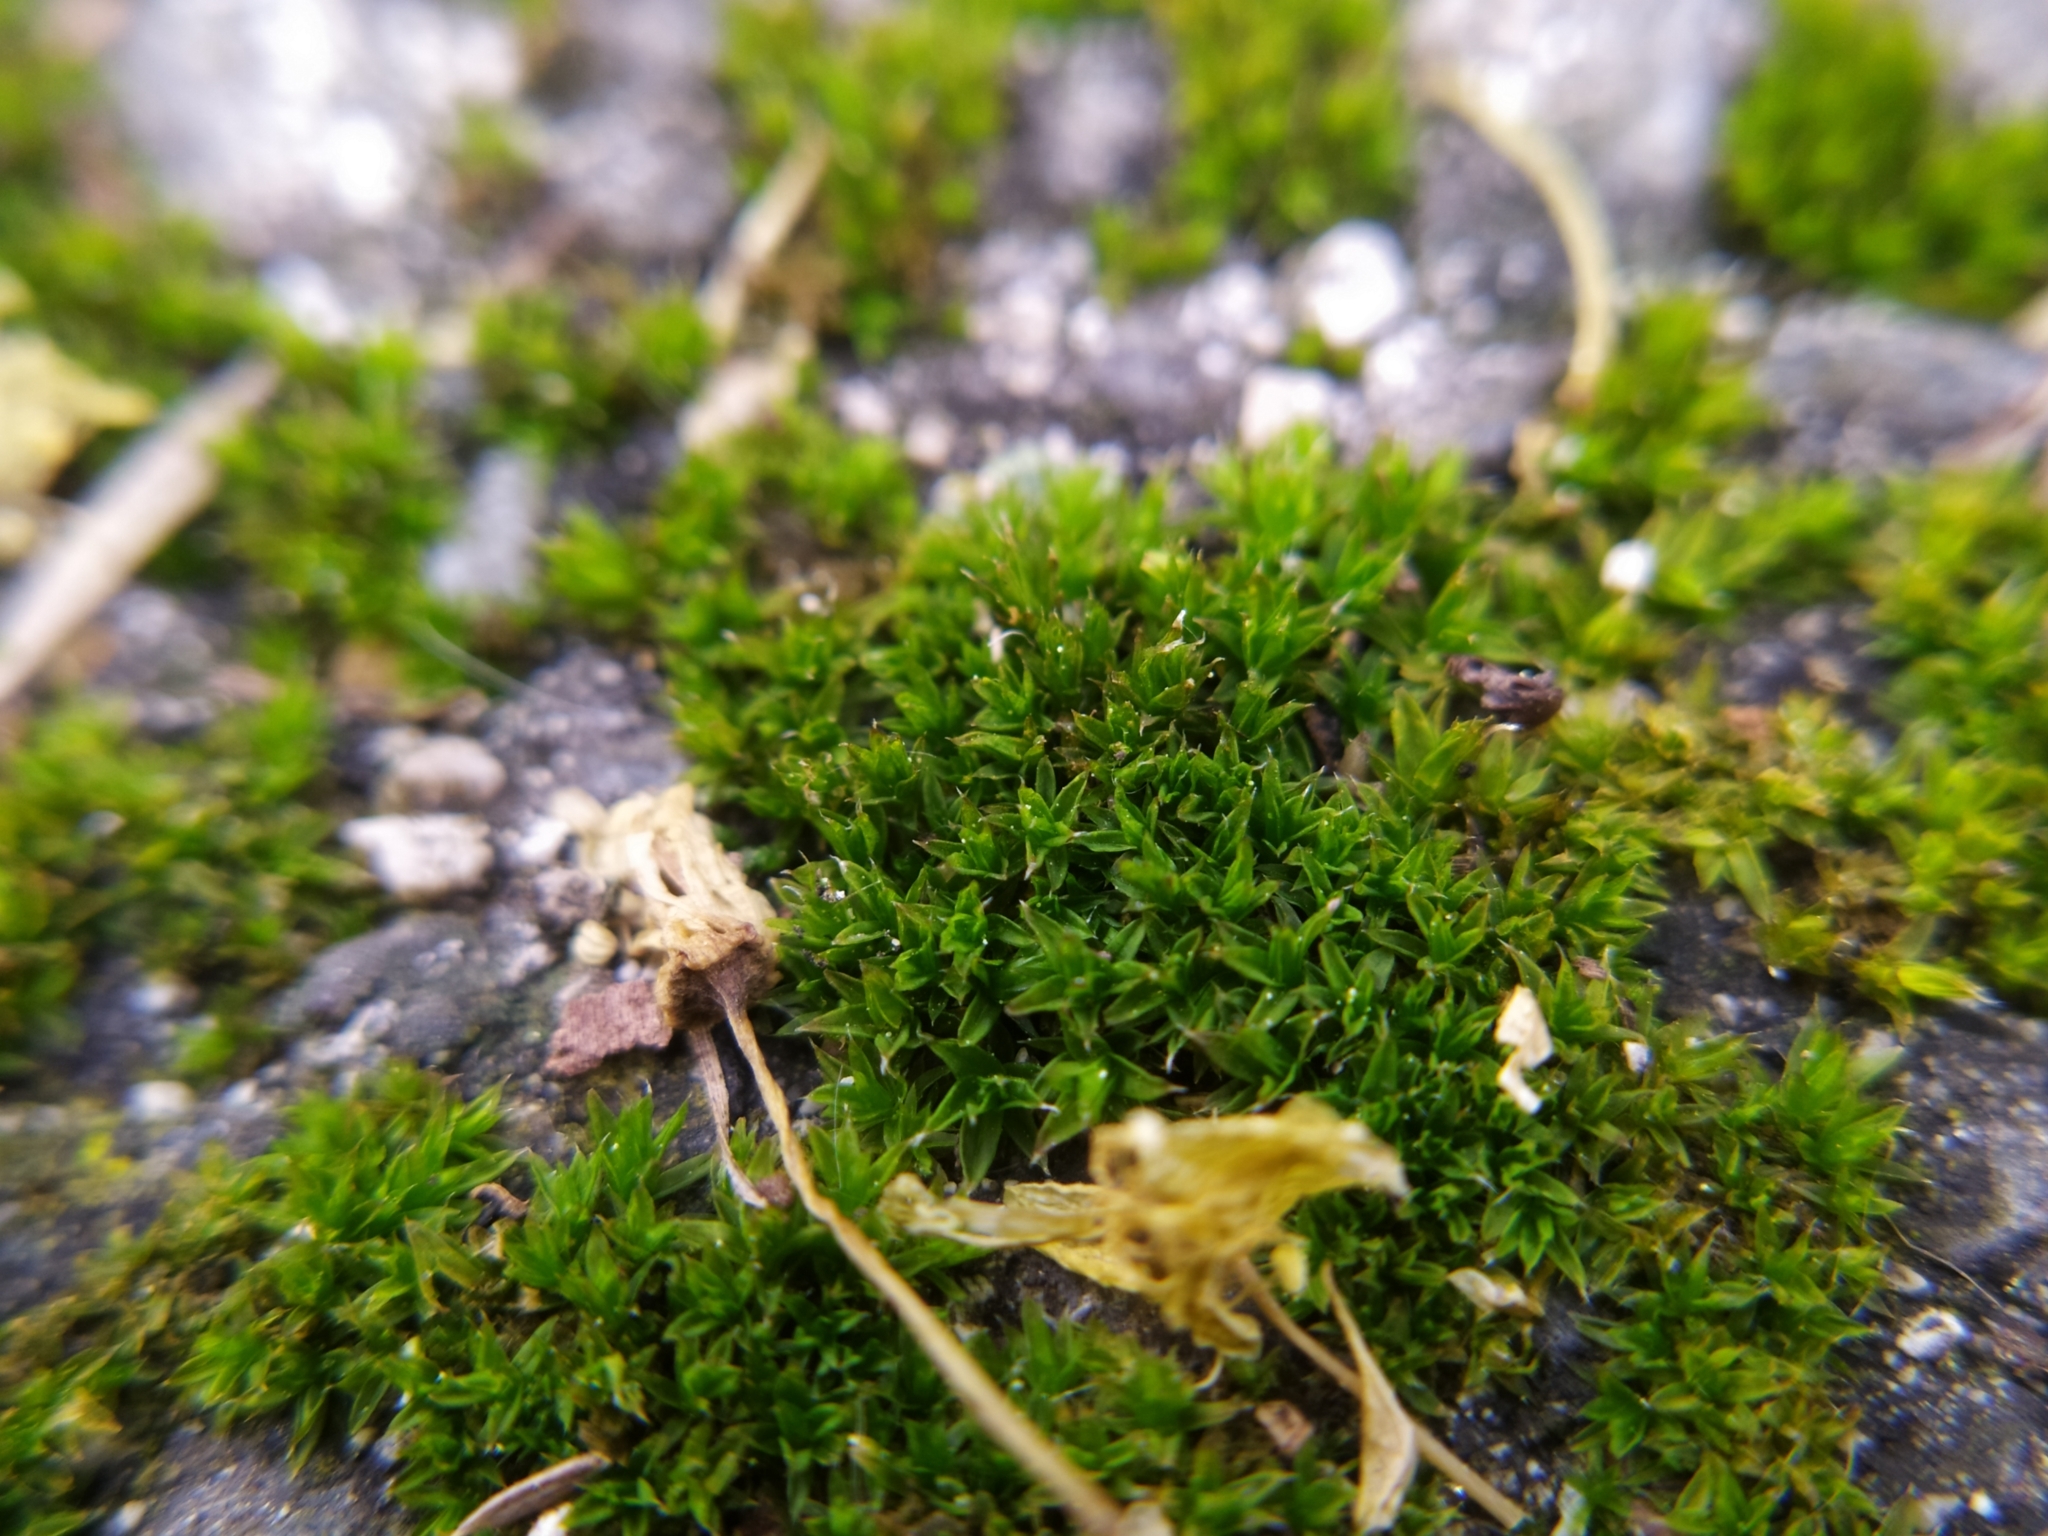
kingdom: Plantae
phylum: Bryophyta
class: Bryopsida
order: Orthotrichales
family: Orthotrichaceae
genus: Orthotrichum
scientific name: Orthotrichum diaphanum
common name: White-tipped bristle-moss
